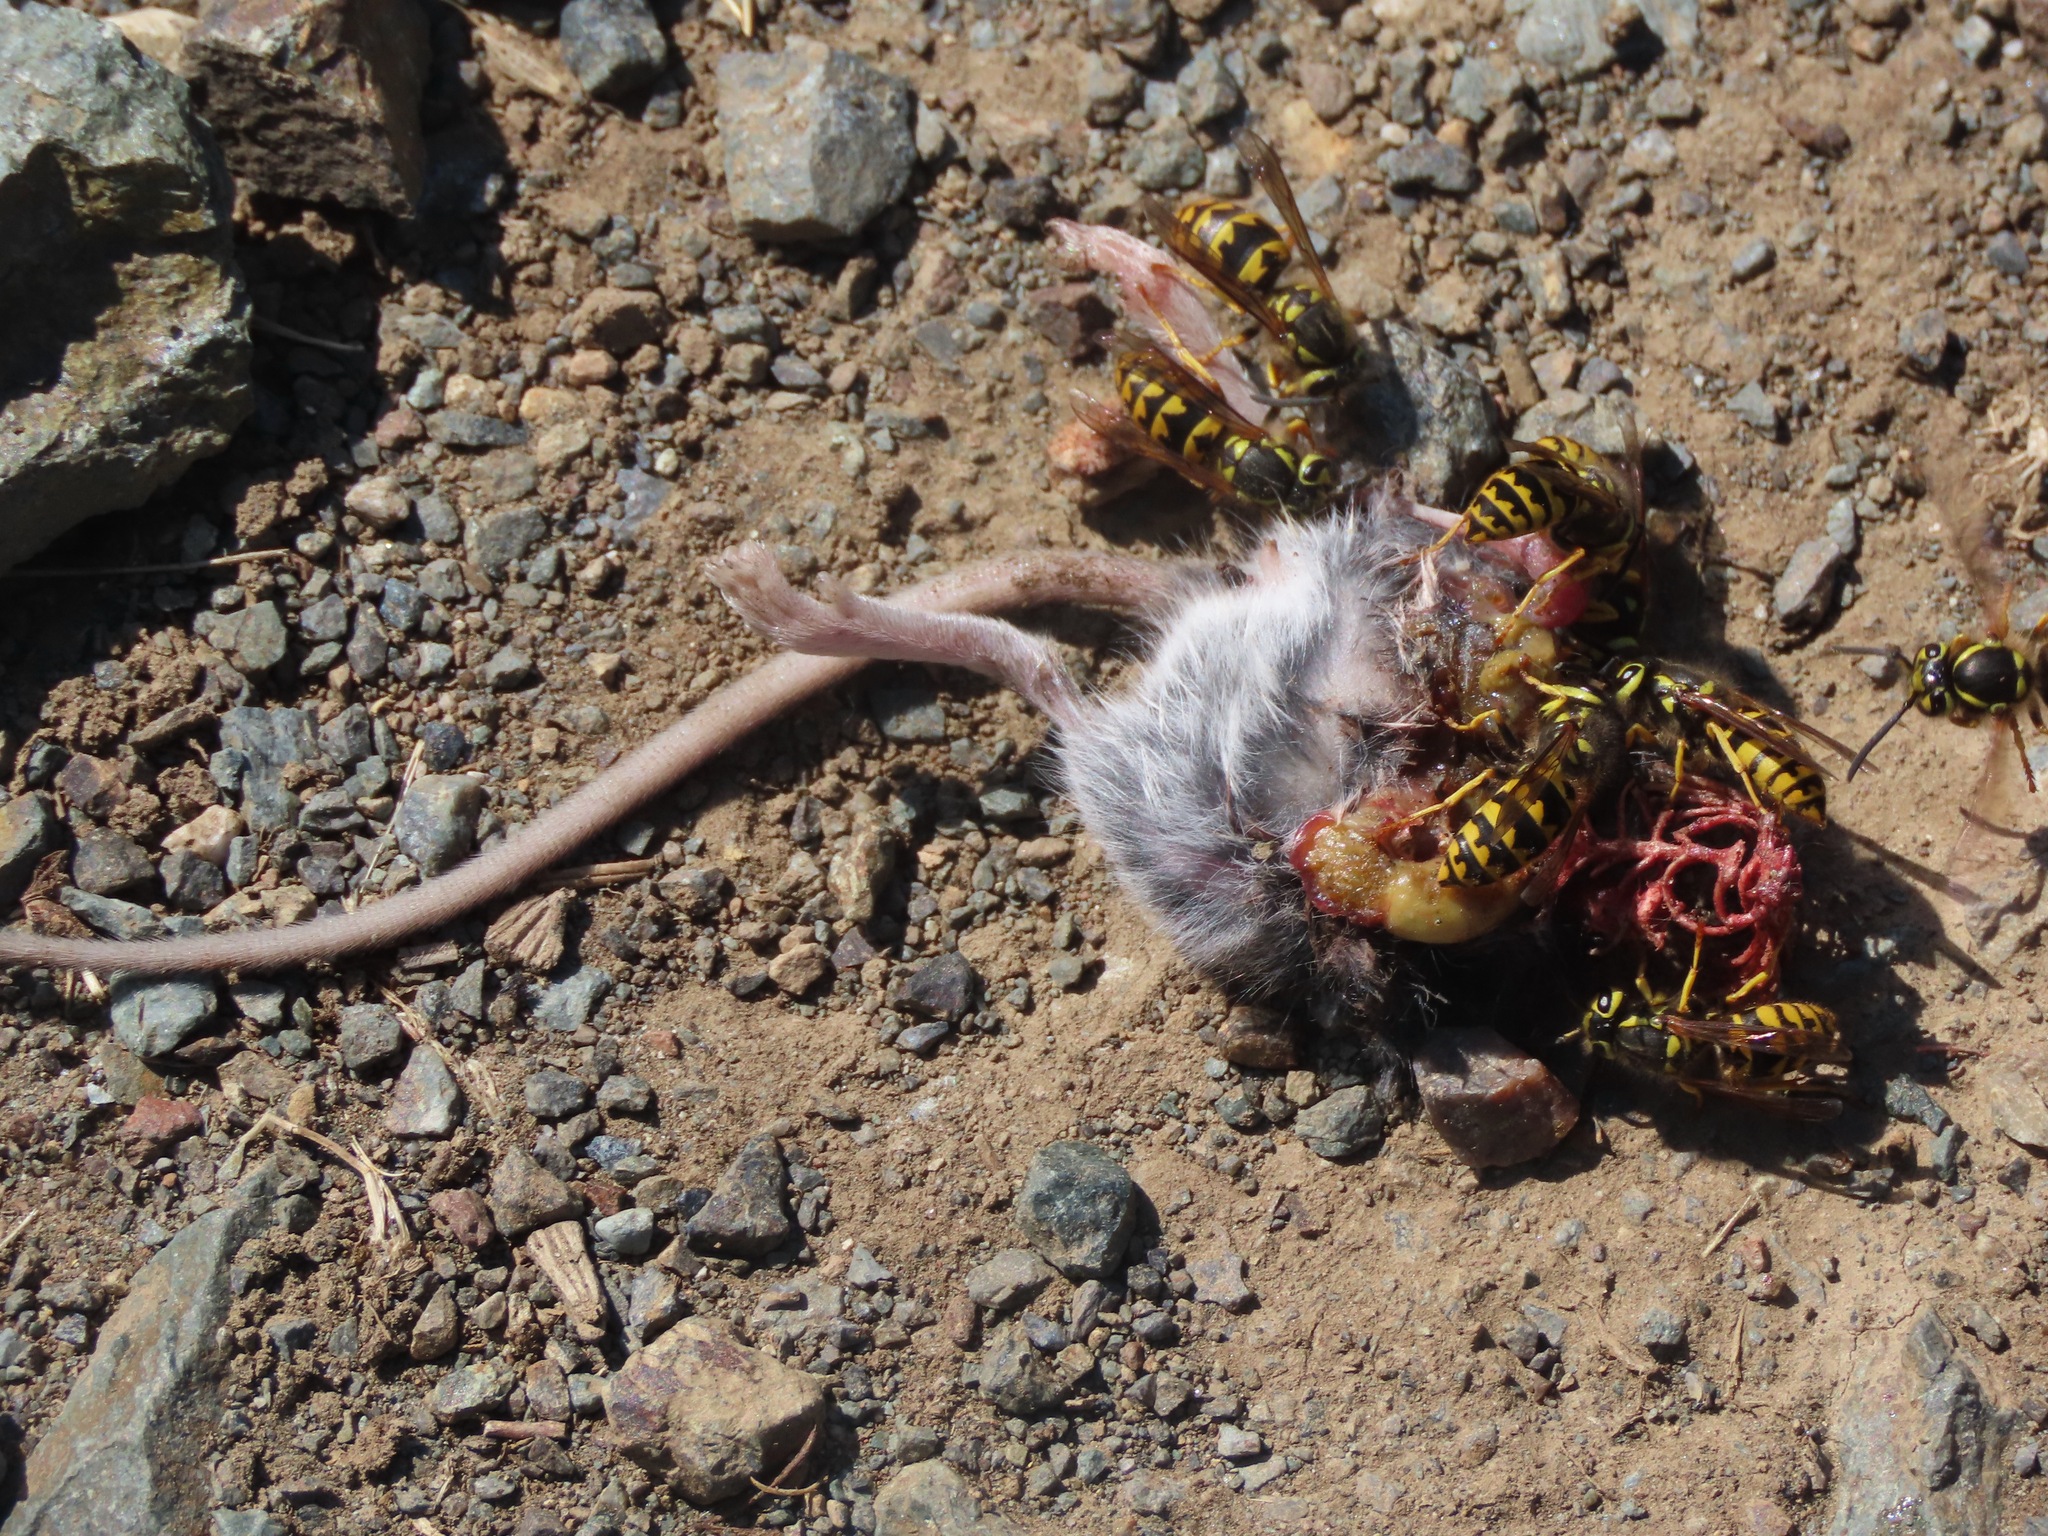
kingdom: Animalia
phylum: Arthropoda
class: Insecta
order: Hymenoptera
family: Vespidae
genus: Vespula
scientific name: Vespula pensylvanica
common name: Western yellowjacket
